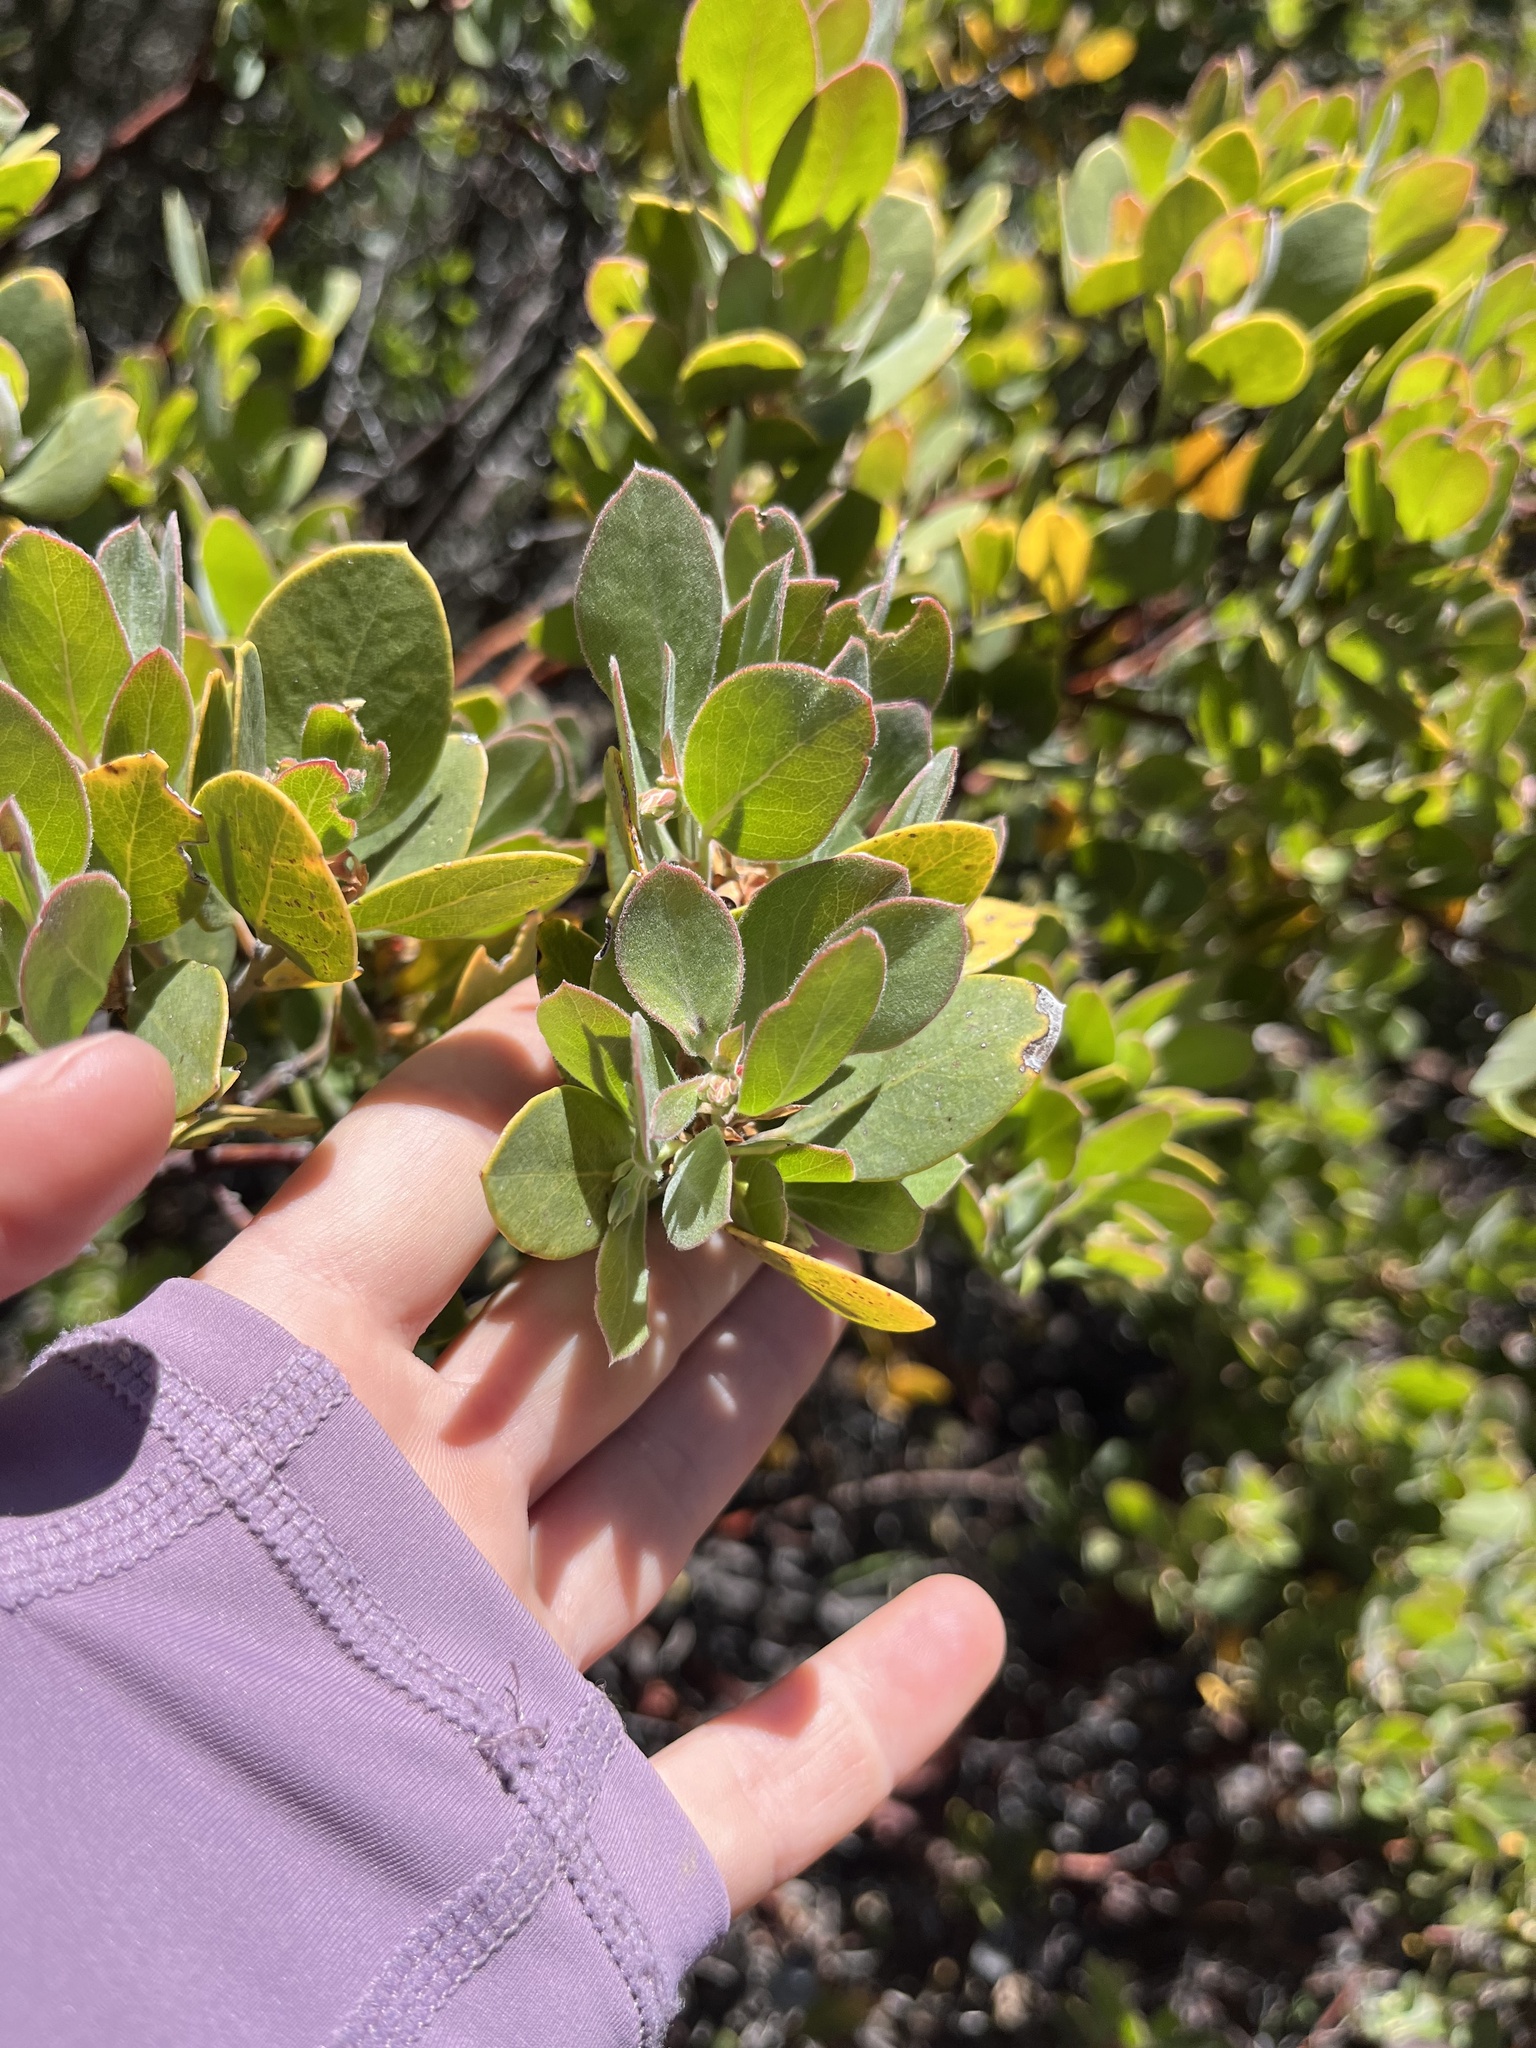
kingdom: Plantae
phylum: Tracheophyta
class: Magnoliopsida
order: Ericales
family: Ericaceae
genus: Arctostaphylos
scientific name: Arctostaphylos obispoensis
